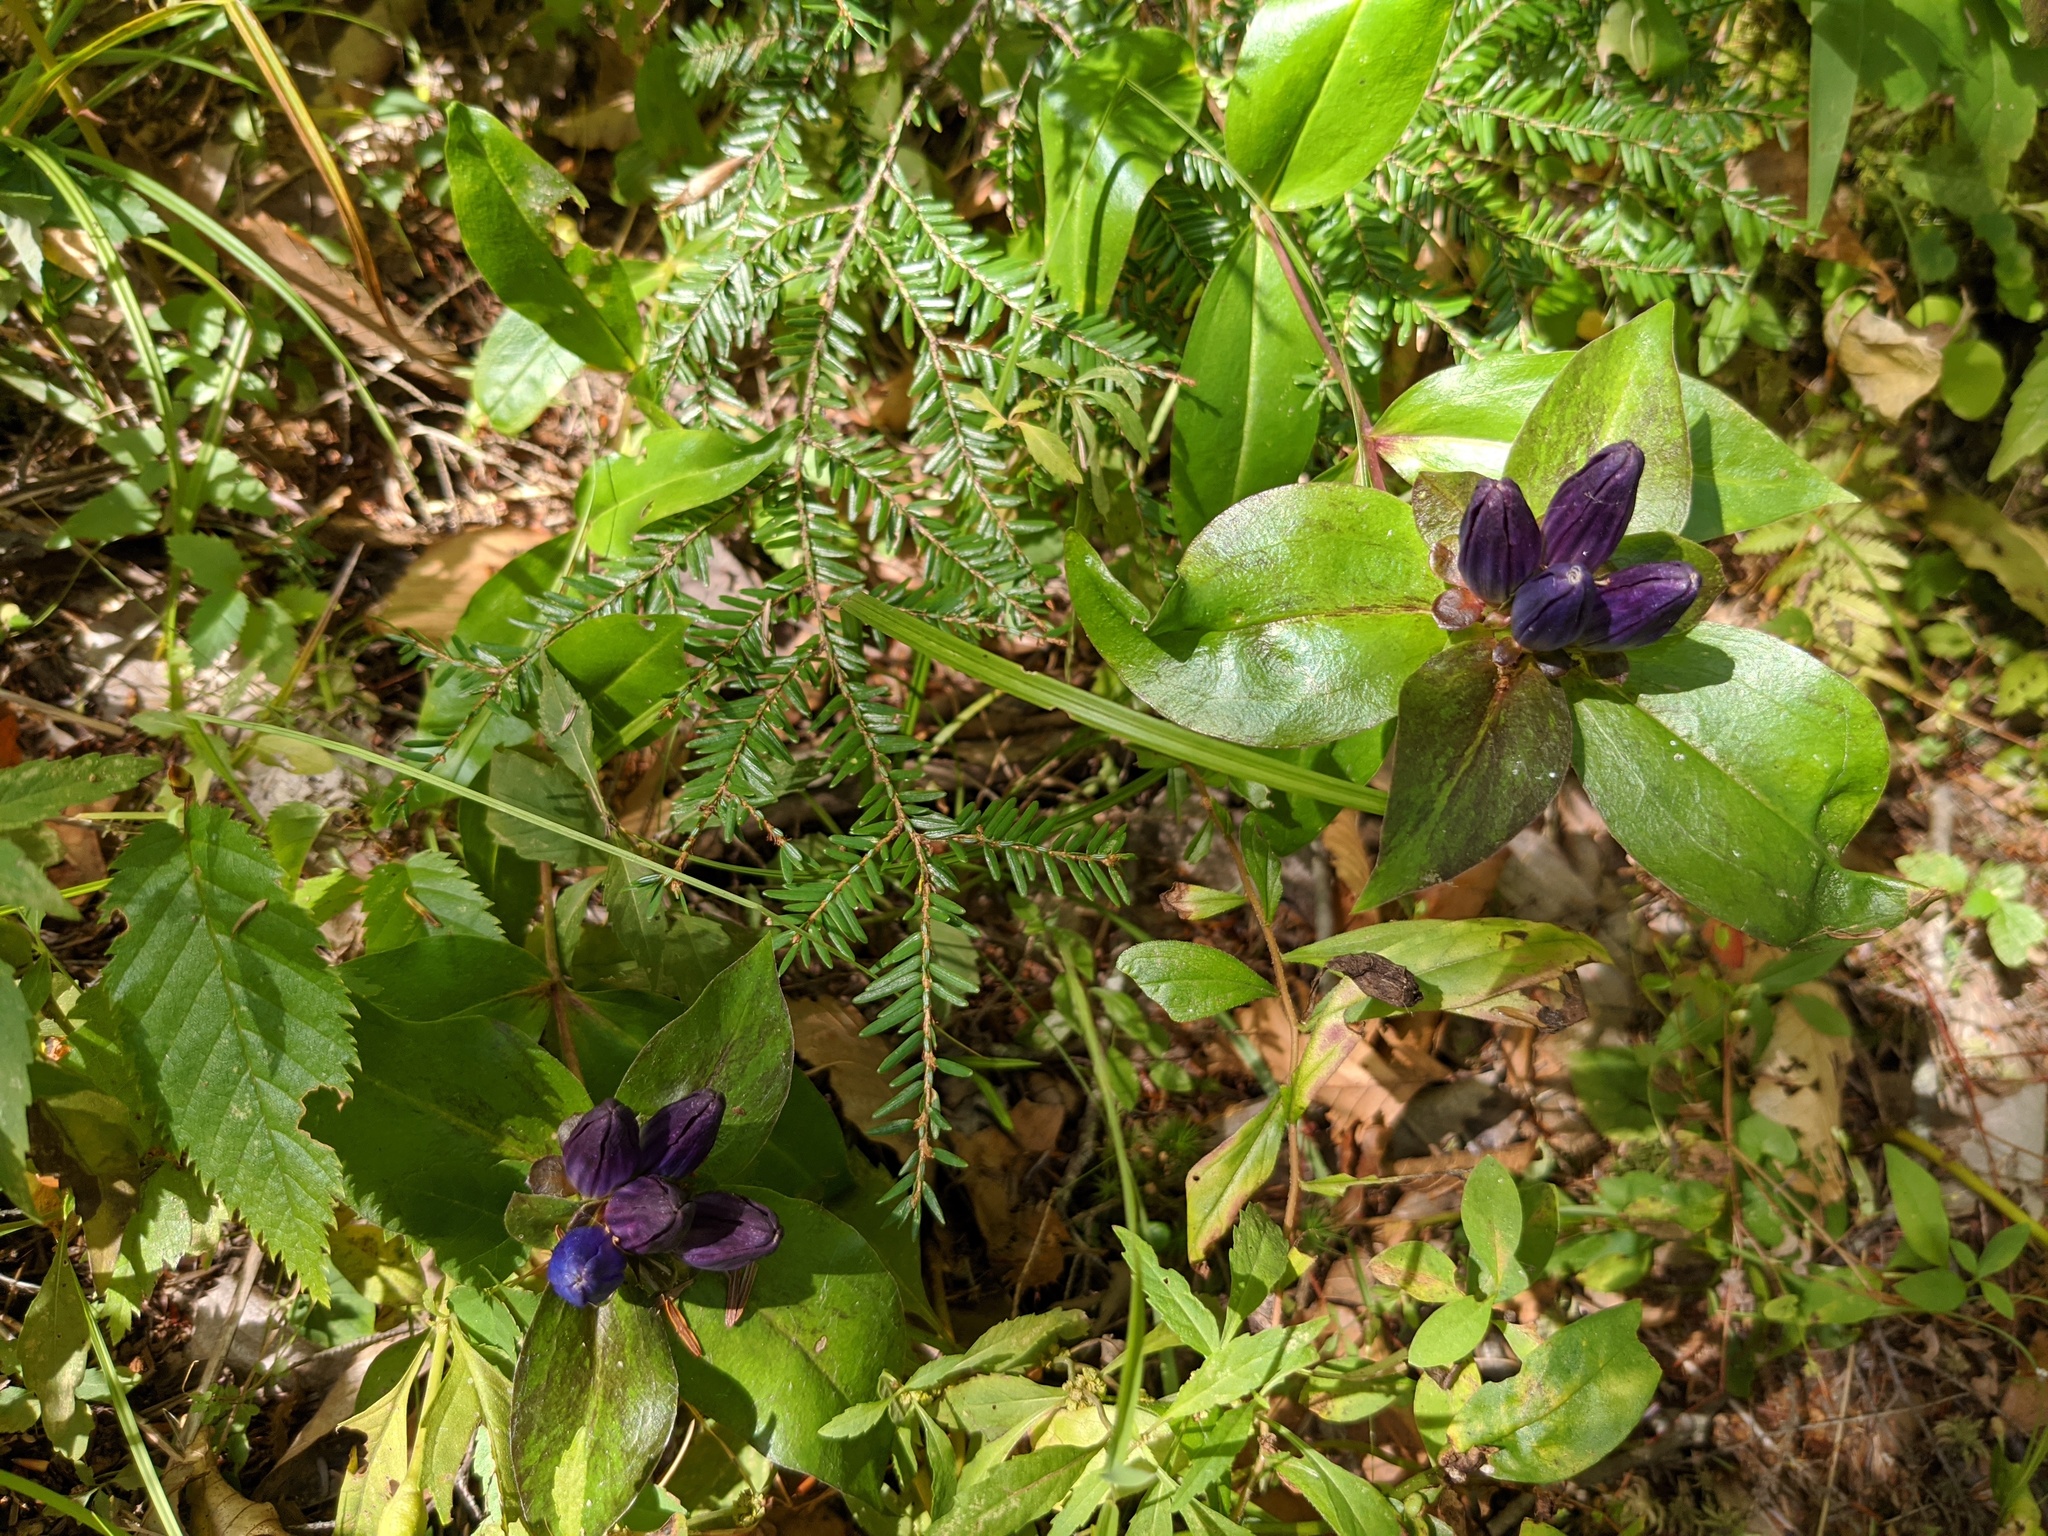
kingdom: Plantae
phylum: Tracheophyta
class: Magnoliopsida
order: Gentianales
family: Gentianaceae
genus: Gentiana
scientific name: Gentiana clausa
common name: Blind gentian
